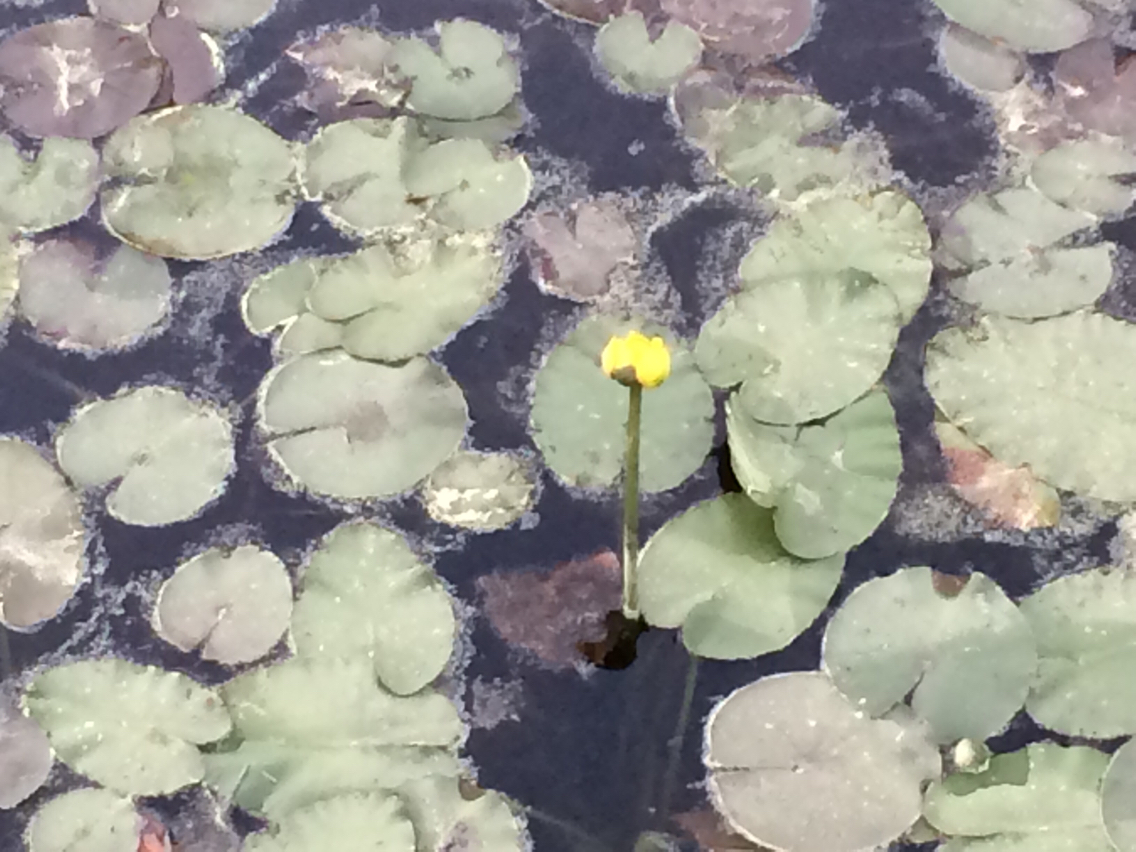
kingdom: Plantae
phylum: Tracheophyta
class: Magnoliopsida
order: Nymphaeales
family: Nymphaeaceae
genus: Nuphar
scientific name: Nuphar variegata
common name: Beaver-root
